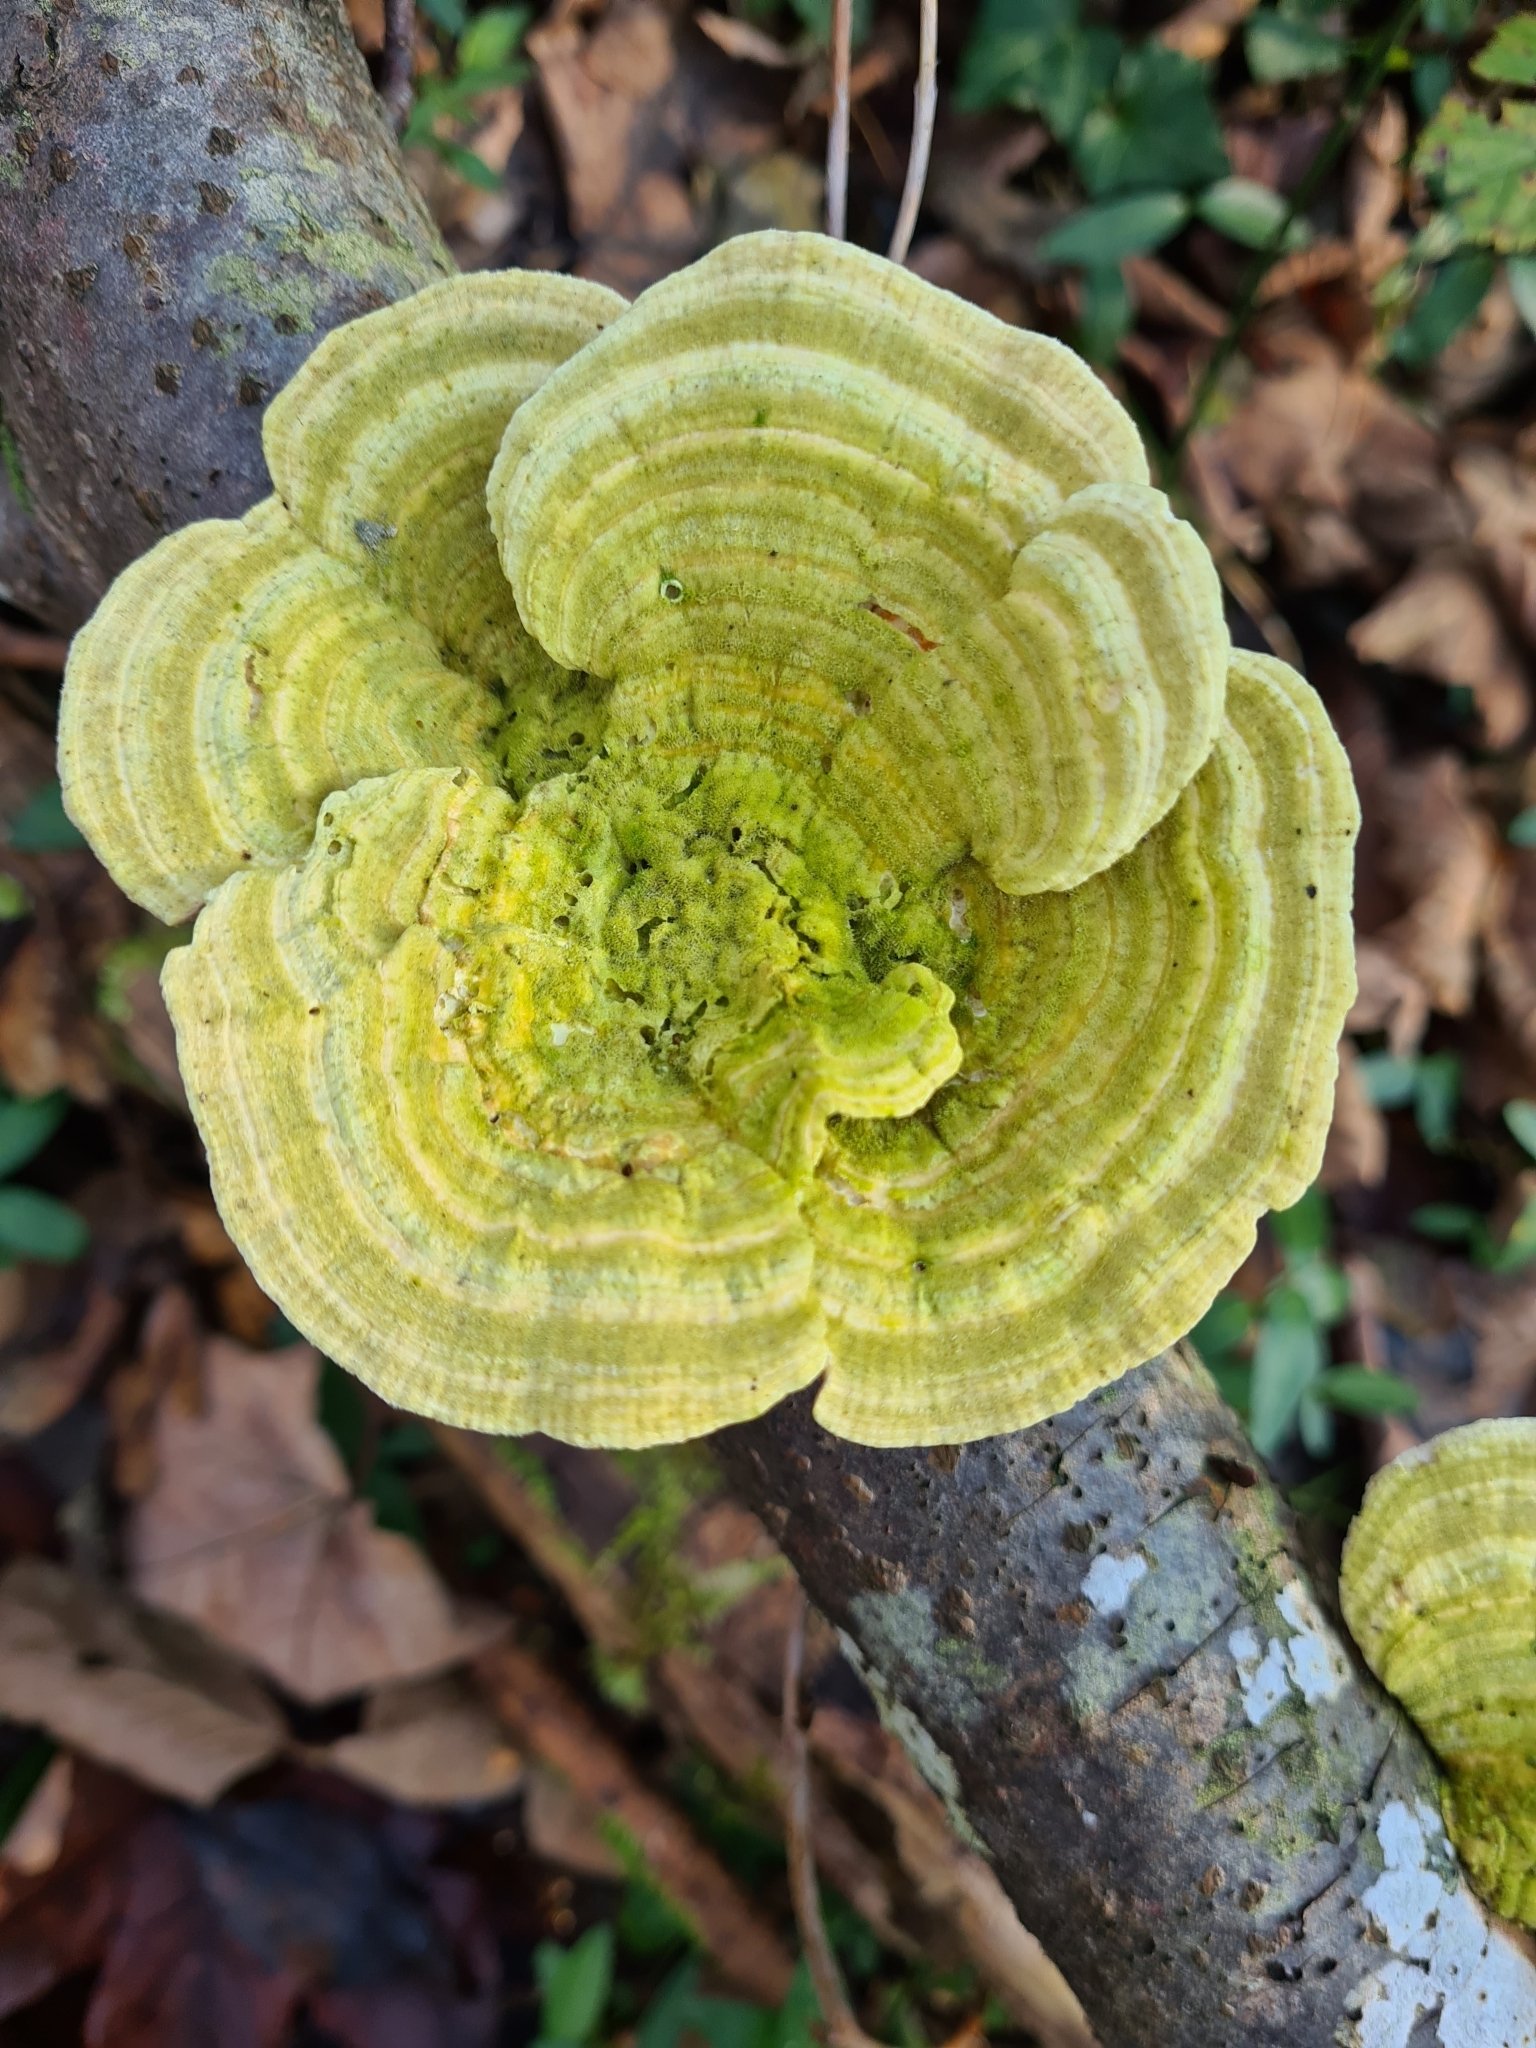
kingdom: Fungi
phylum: Basidiomycota
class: Agaricomycetes
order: Polyporales
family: Polyporaceae
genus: Lenzites
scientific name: Lenzites betulinus
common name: Birch mazegill
